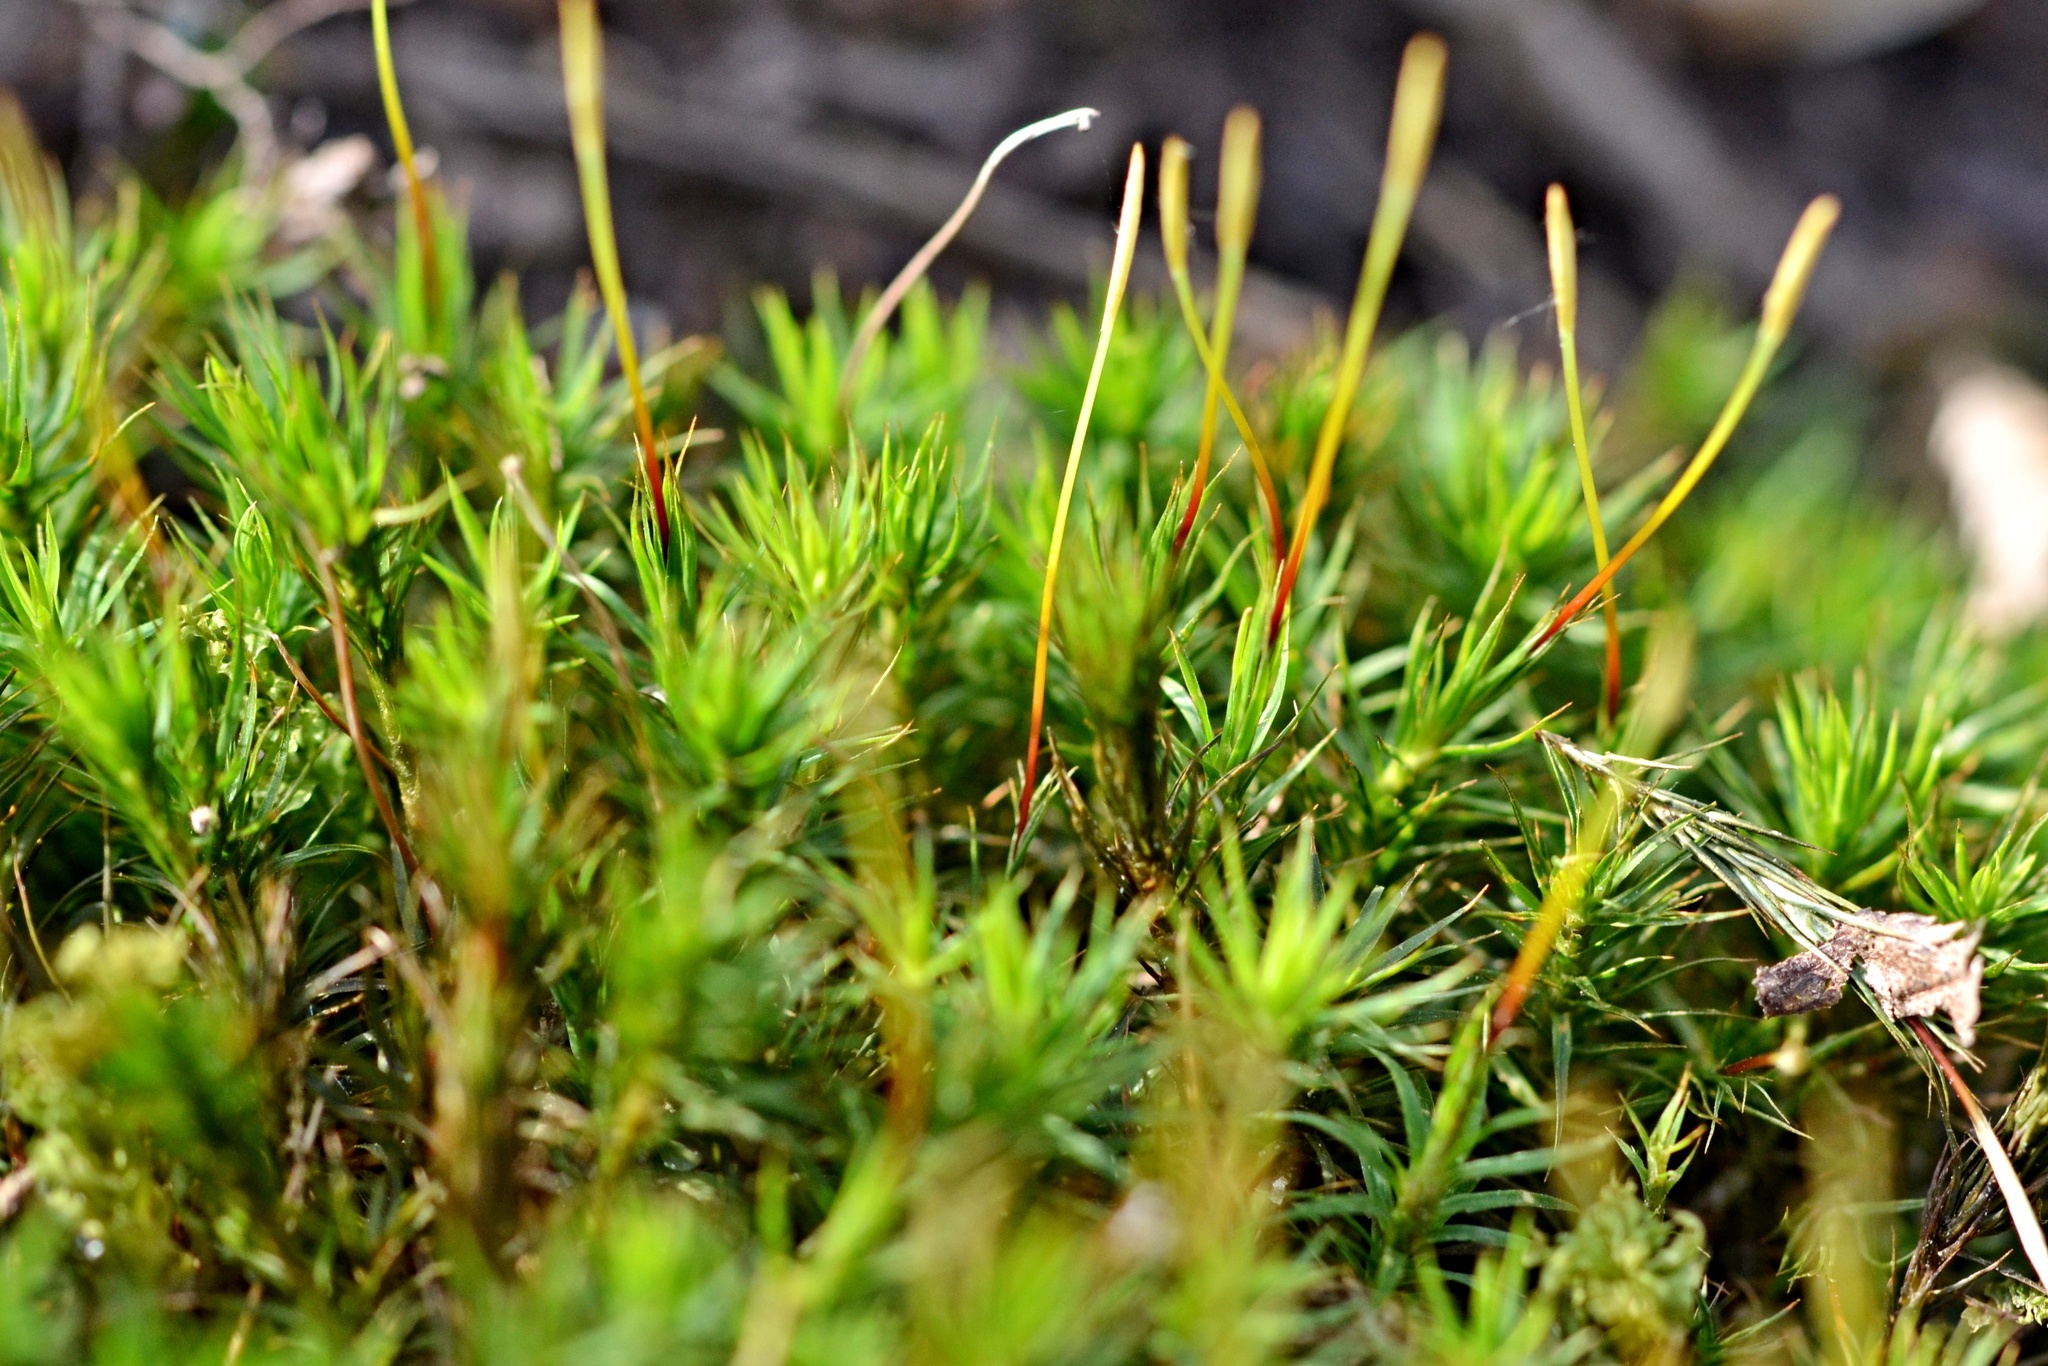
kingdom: Plantae
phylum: Bryophyta
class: Polytrichopsida
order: Polytrichales
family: Polytrichaceae
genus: Polytrichum
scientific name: Polytrichum formosum
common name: Bank haircap moss
